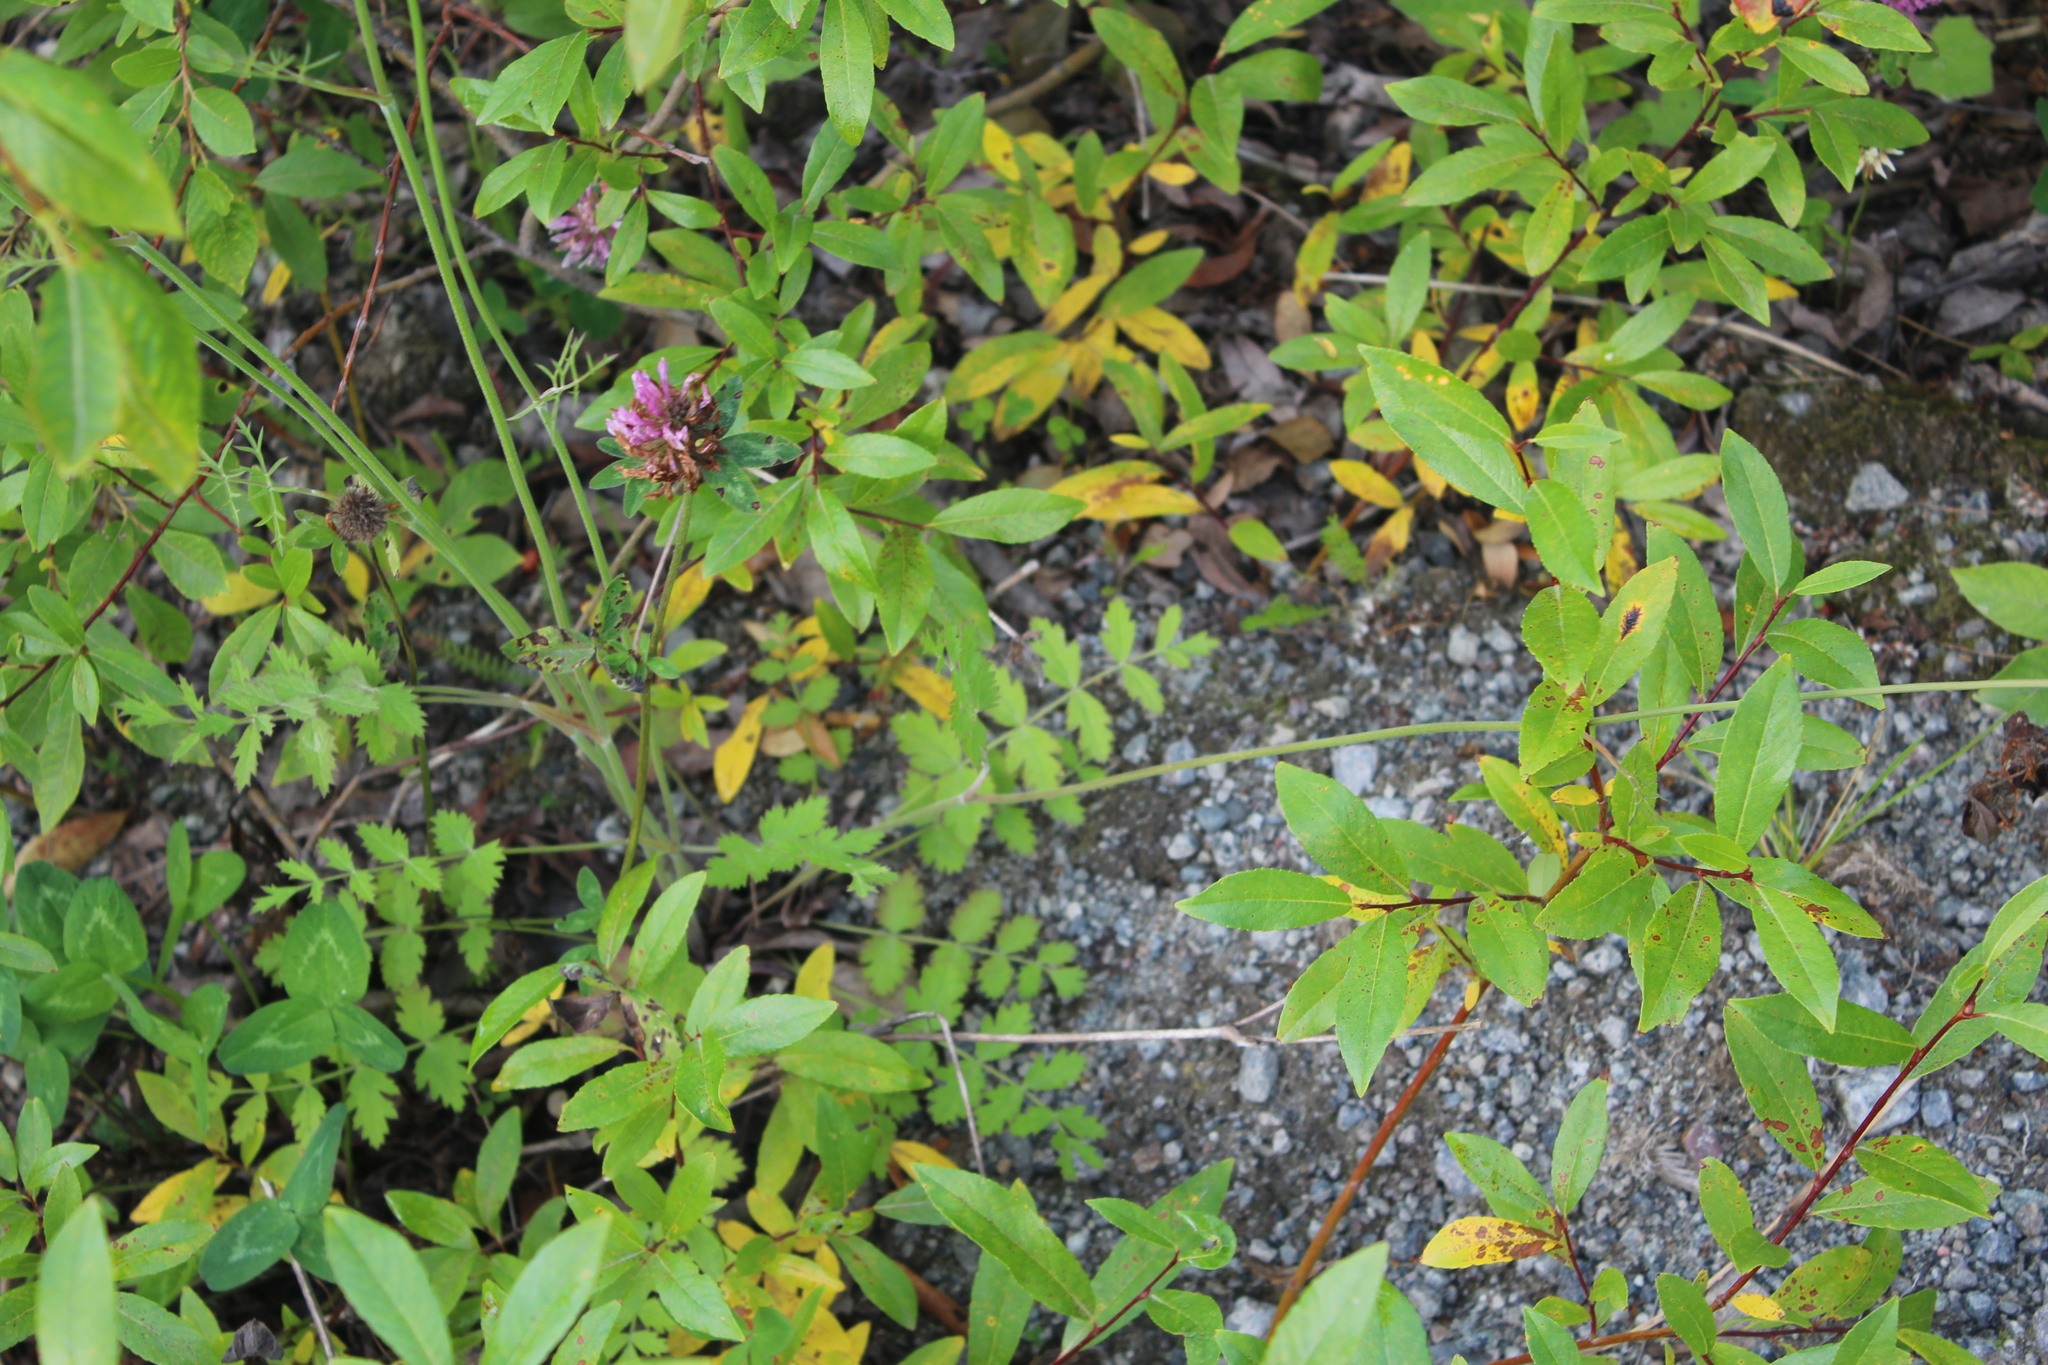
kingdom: Plantae
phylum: Tracheophyta
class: Magnoliopsida
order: Apiales
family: Apiaceae
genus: Pimpinella
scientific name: Pimpinella saxifraga
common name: Burnet-saxifrage
